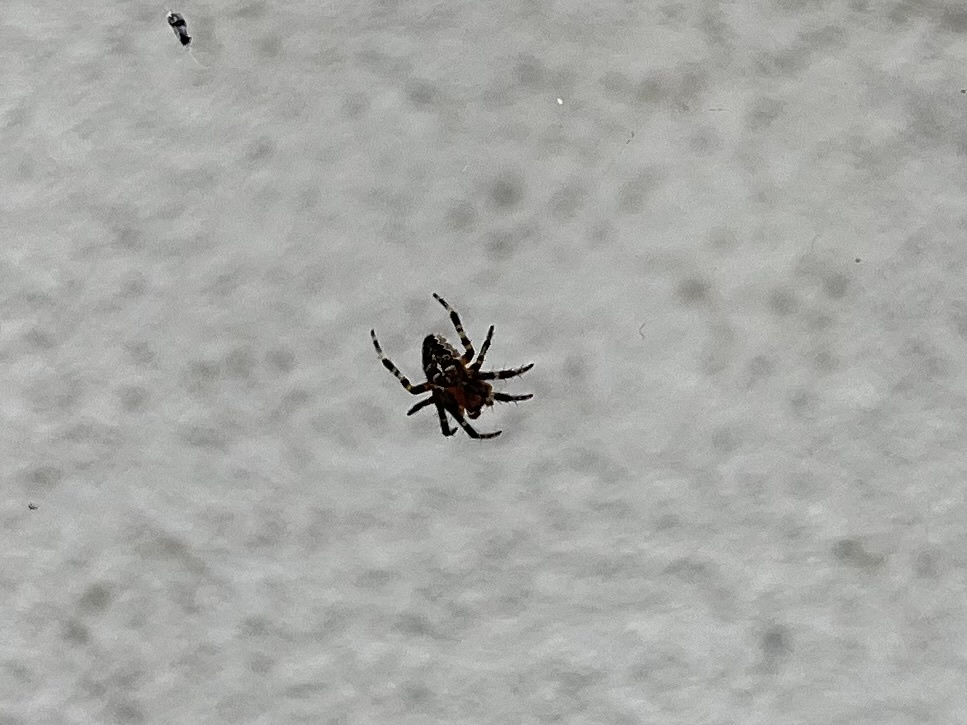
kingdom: Animalia
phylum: Arthropoda
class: Arachnida
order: Araneae
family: Araneidae
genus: Araneus
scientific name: Araneus diadematus
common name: Cross orbweaver
